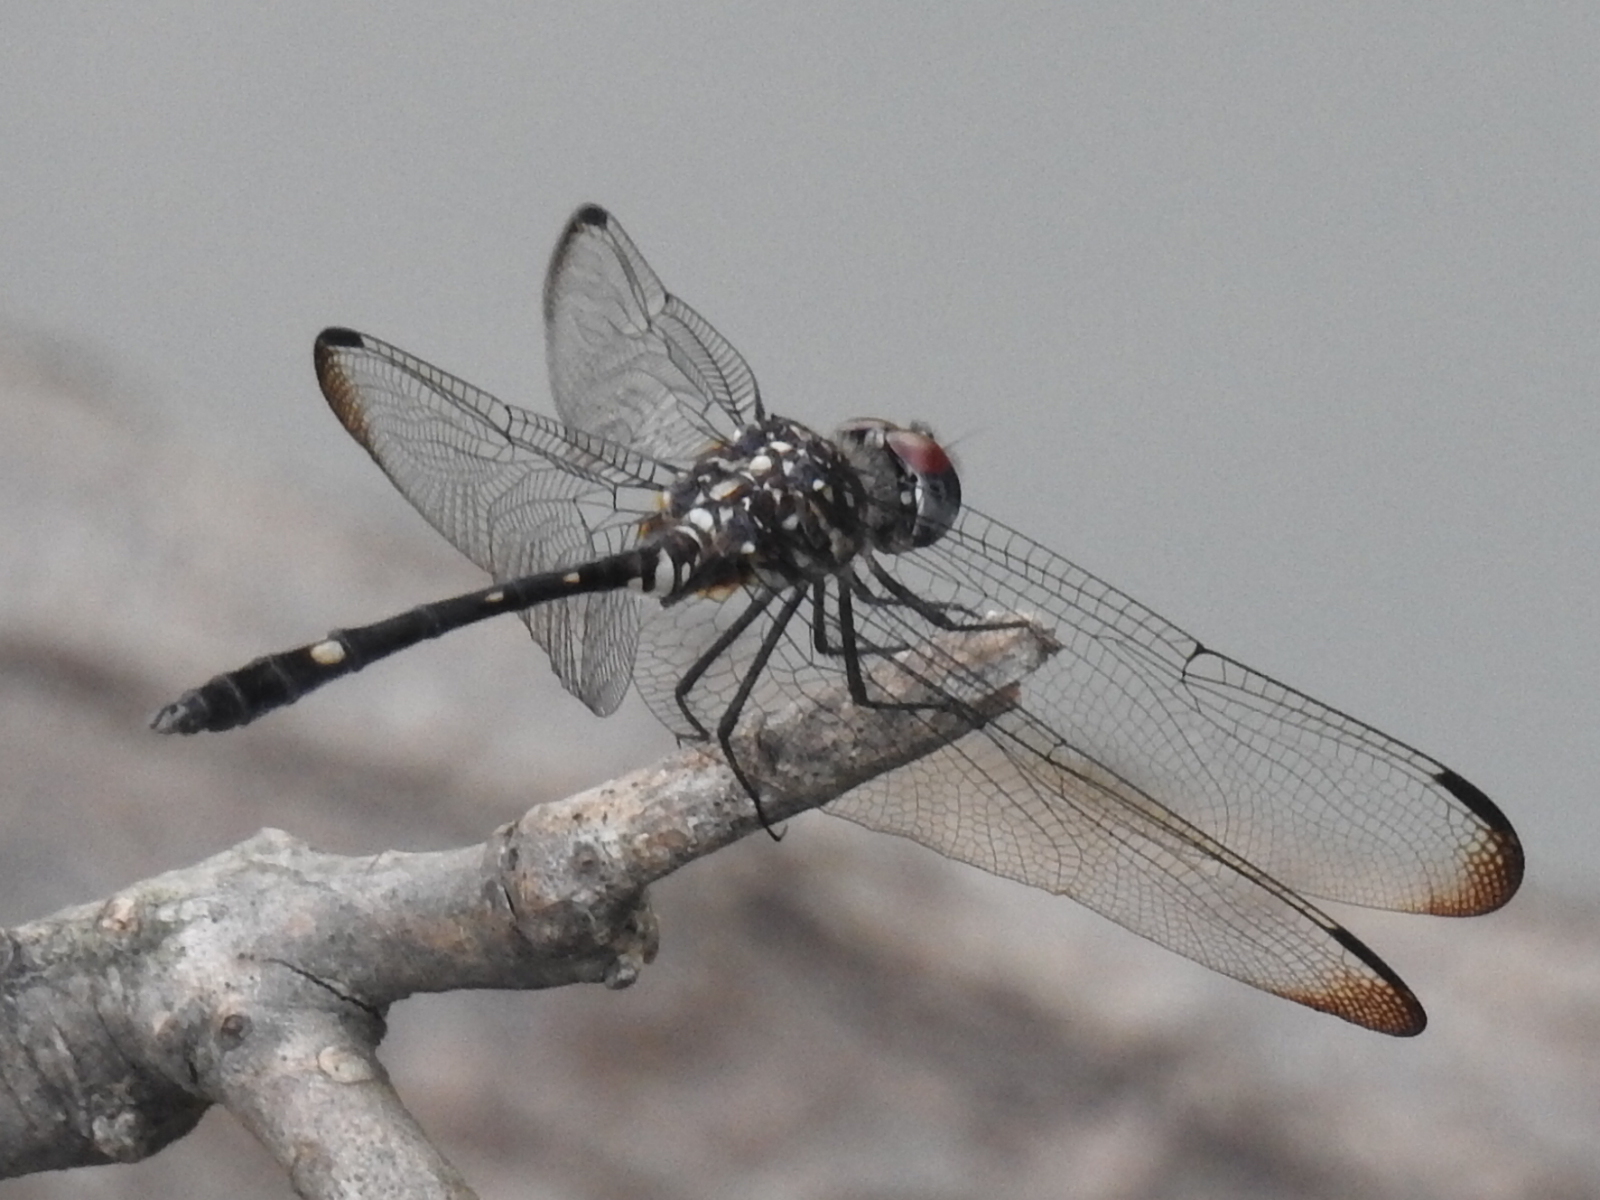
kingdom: Animalia
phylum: Arthropoda
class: Insecta
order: Odonata
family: Libellulidae
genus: Dythemis
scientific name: Dythemis velox
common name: Swift setwing
